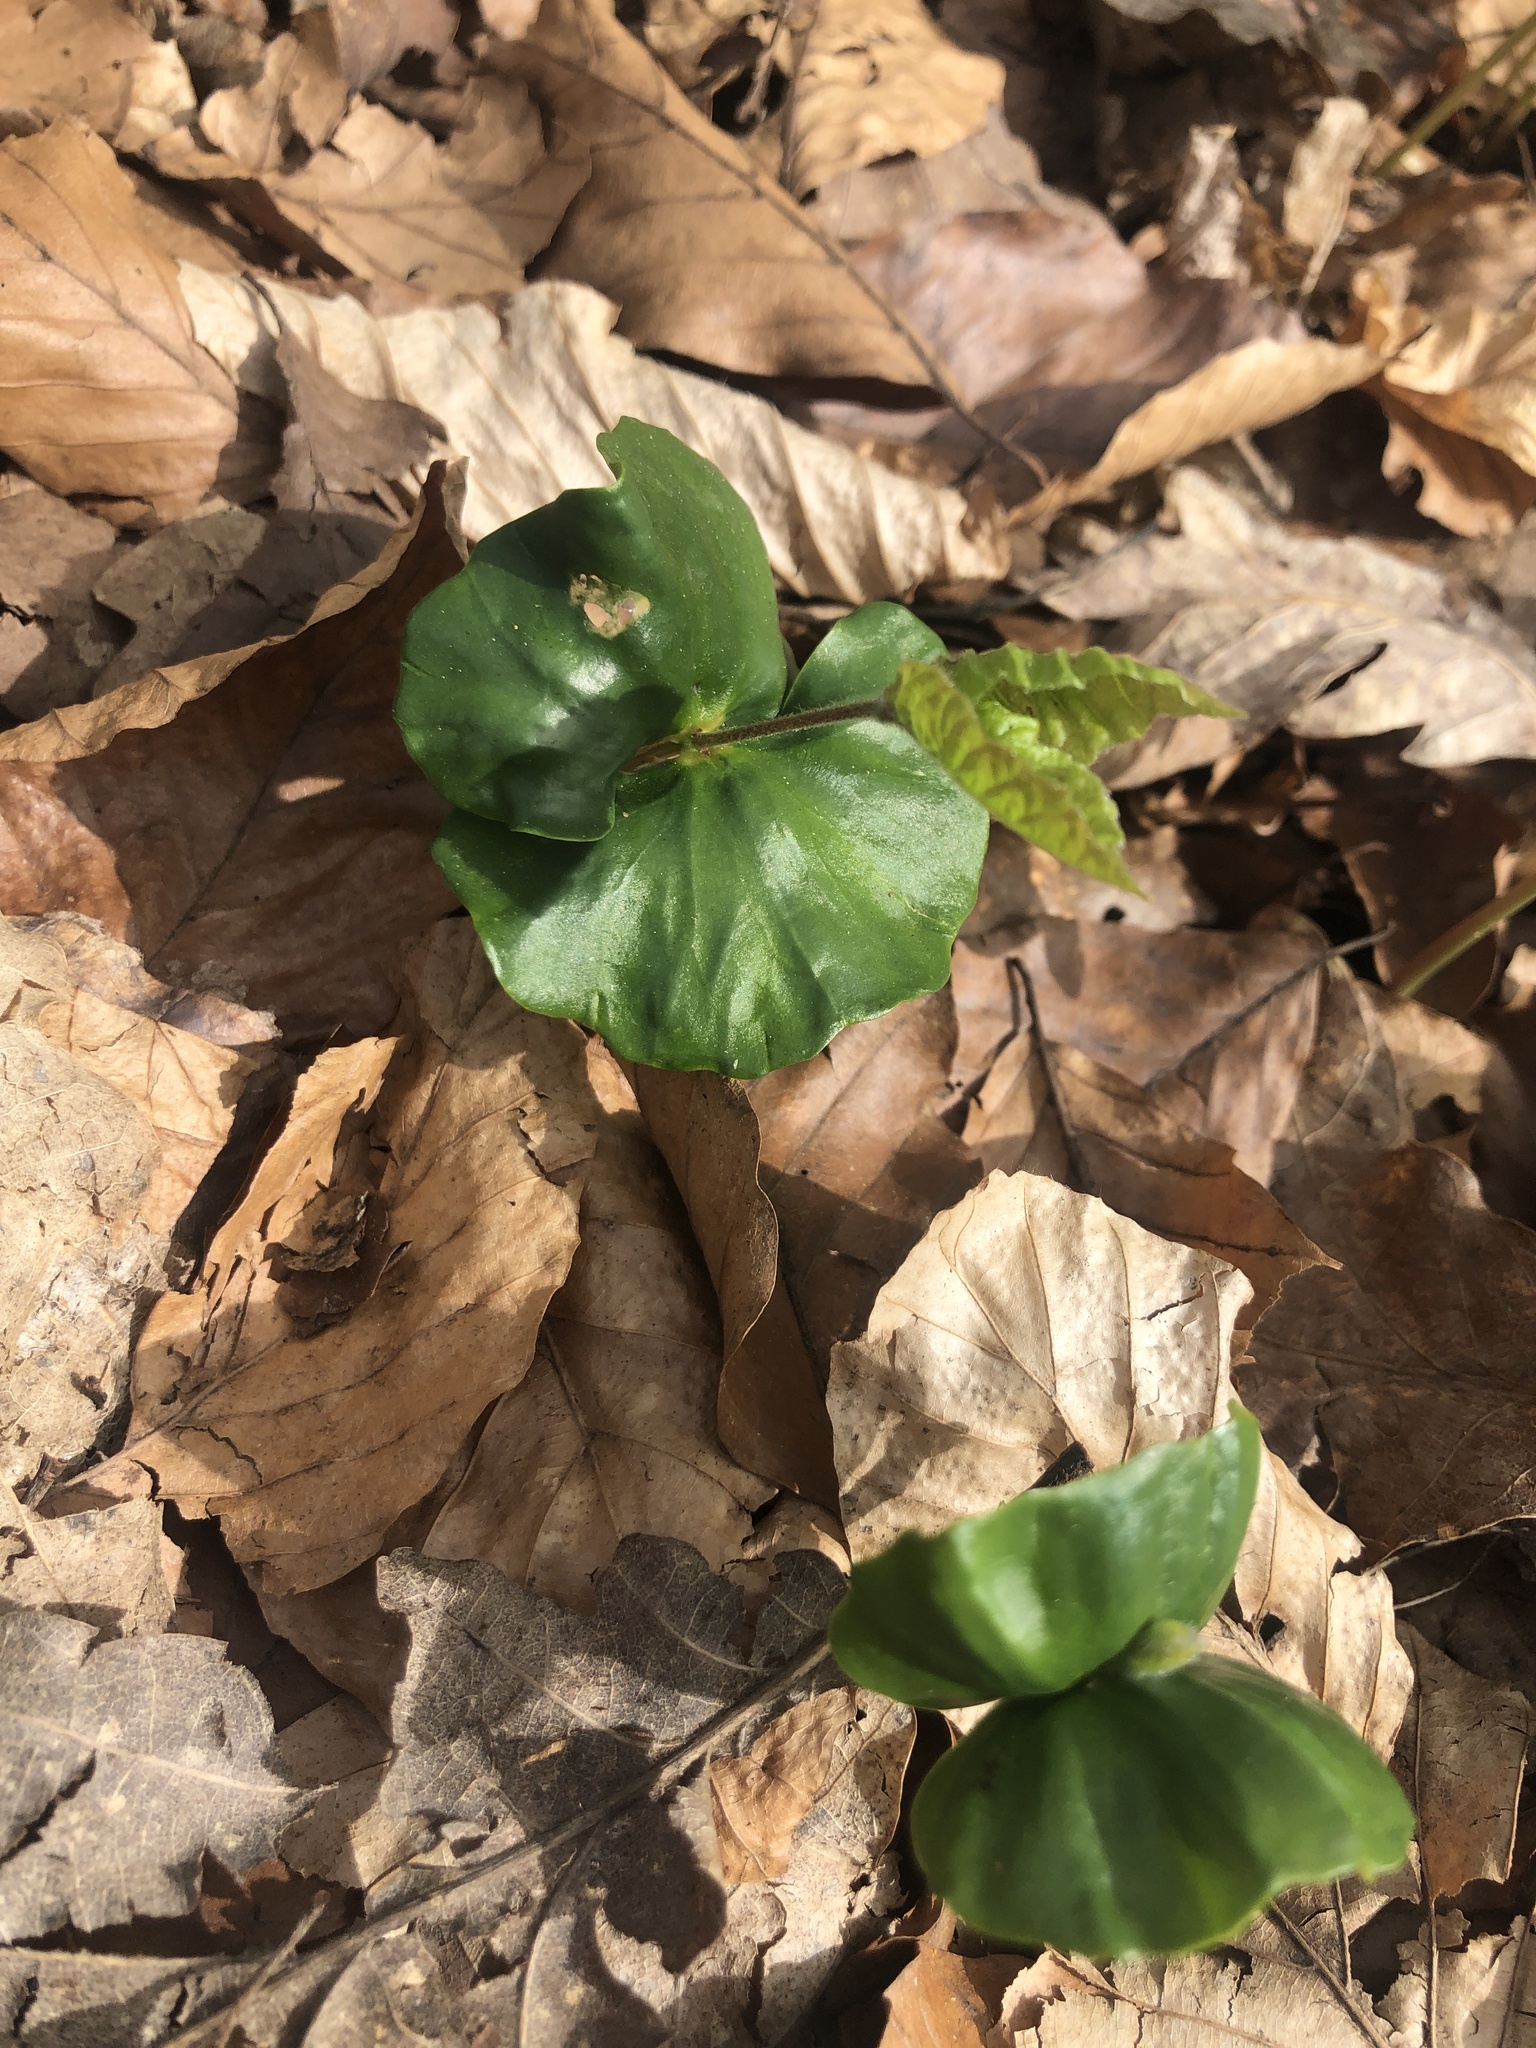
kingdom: Plantae
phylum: Tracheophyta
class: Magnoliopsida
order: Fagales
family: Fagaceae
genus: Fagus
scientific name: Fagus sylvatica
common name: Beech
